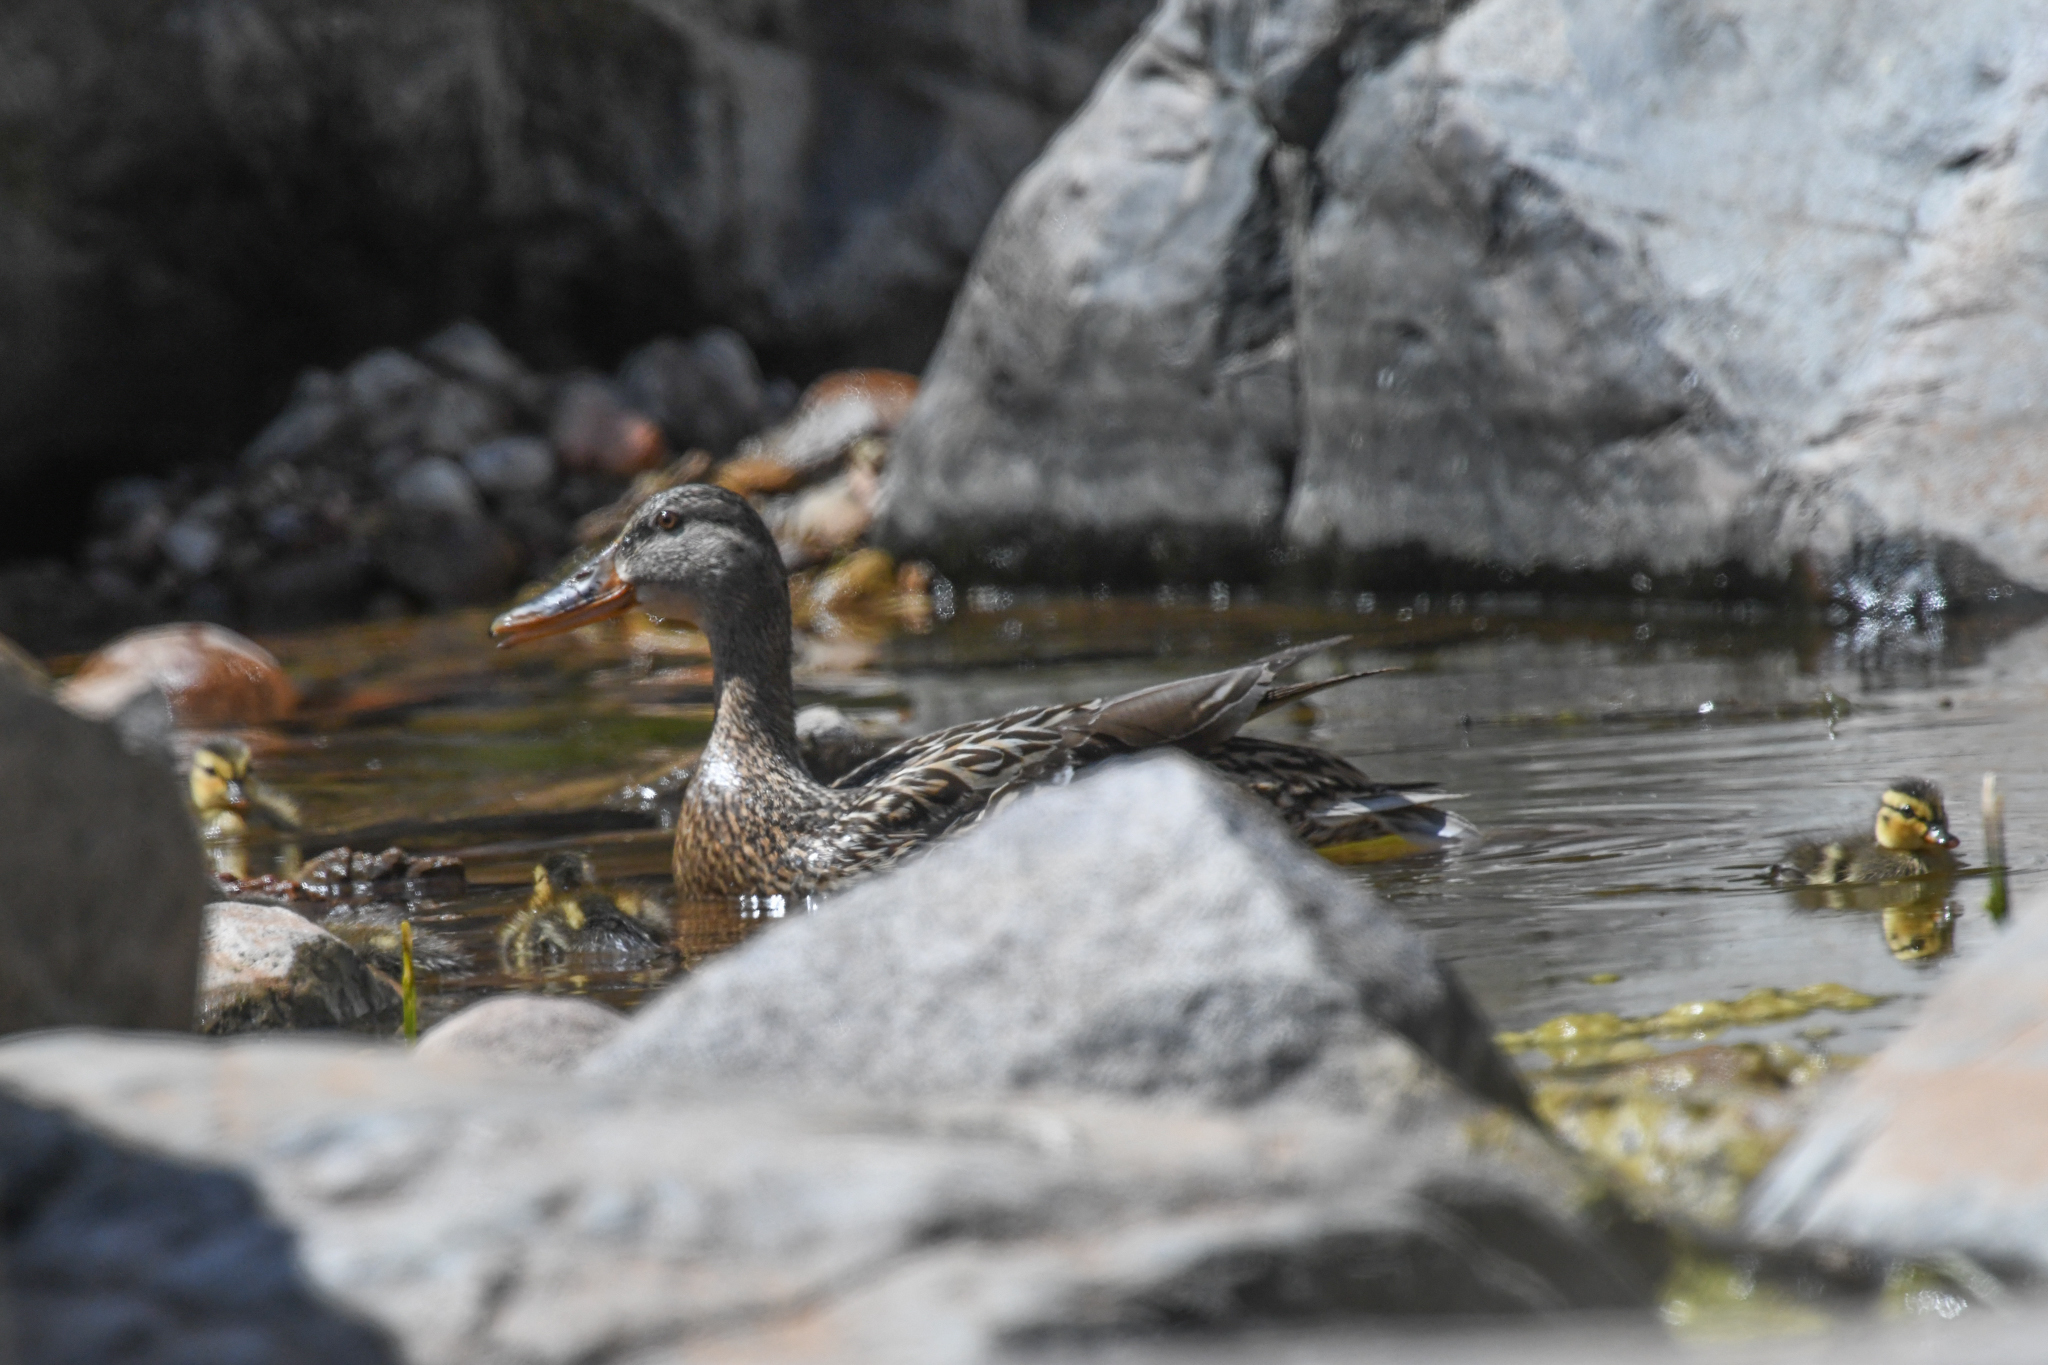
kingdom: Animalia
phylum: Chordata
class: Aves
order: Anseriformes
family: Anatidae
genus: Anas
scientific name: Anas platyrhynchos
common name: Mallard
